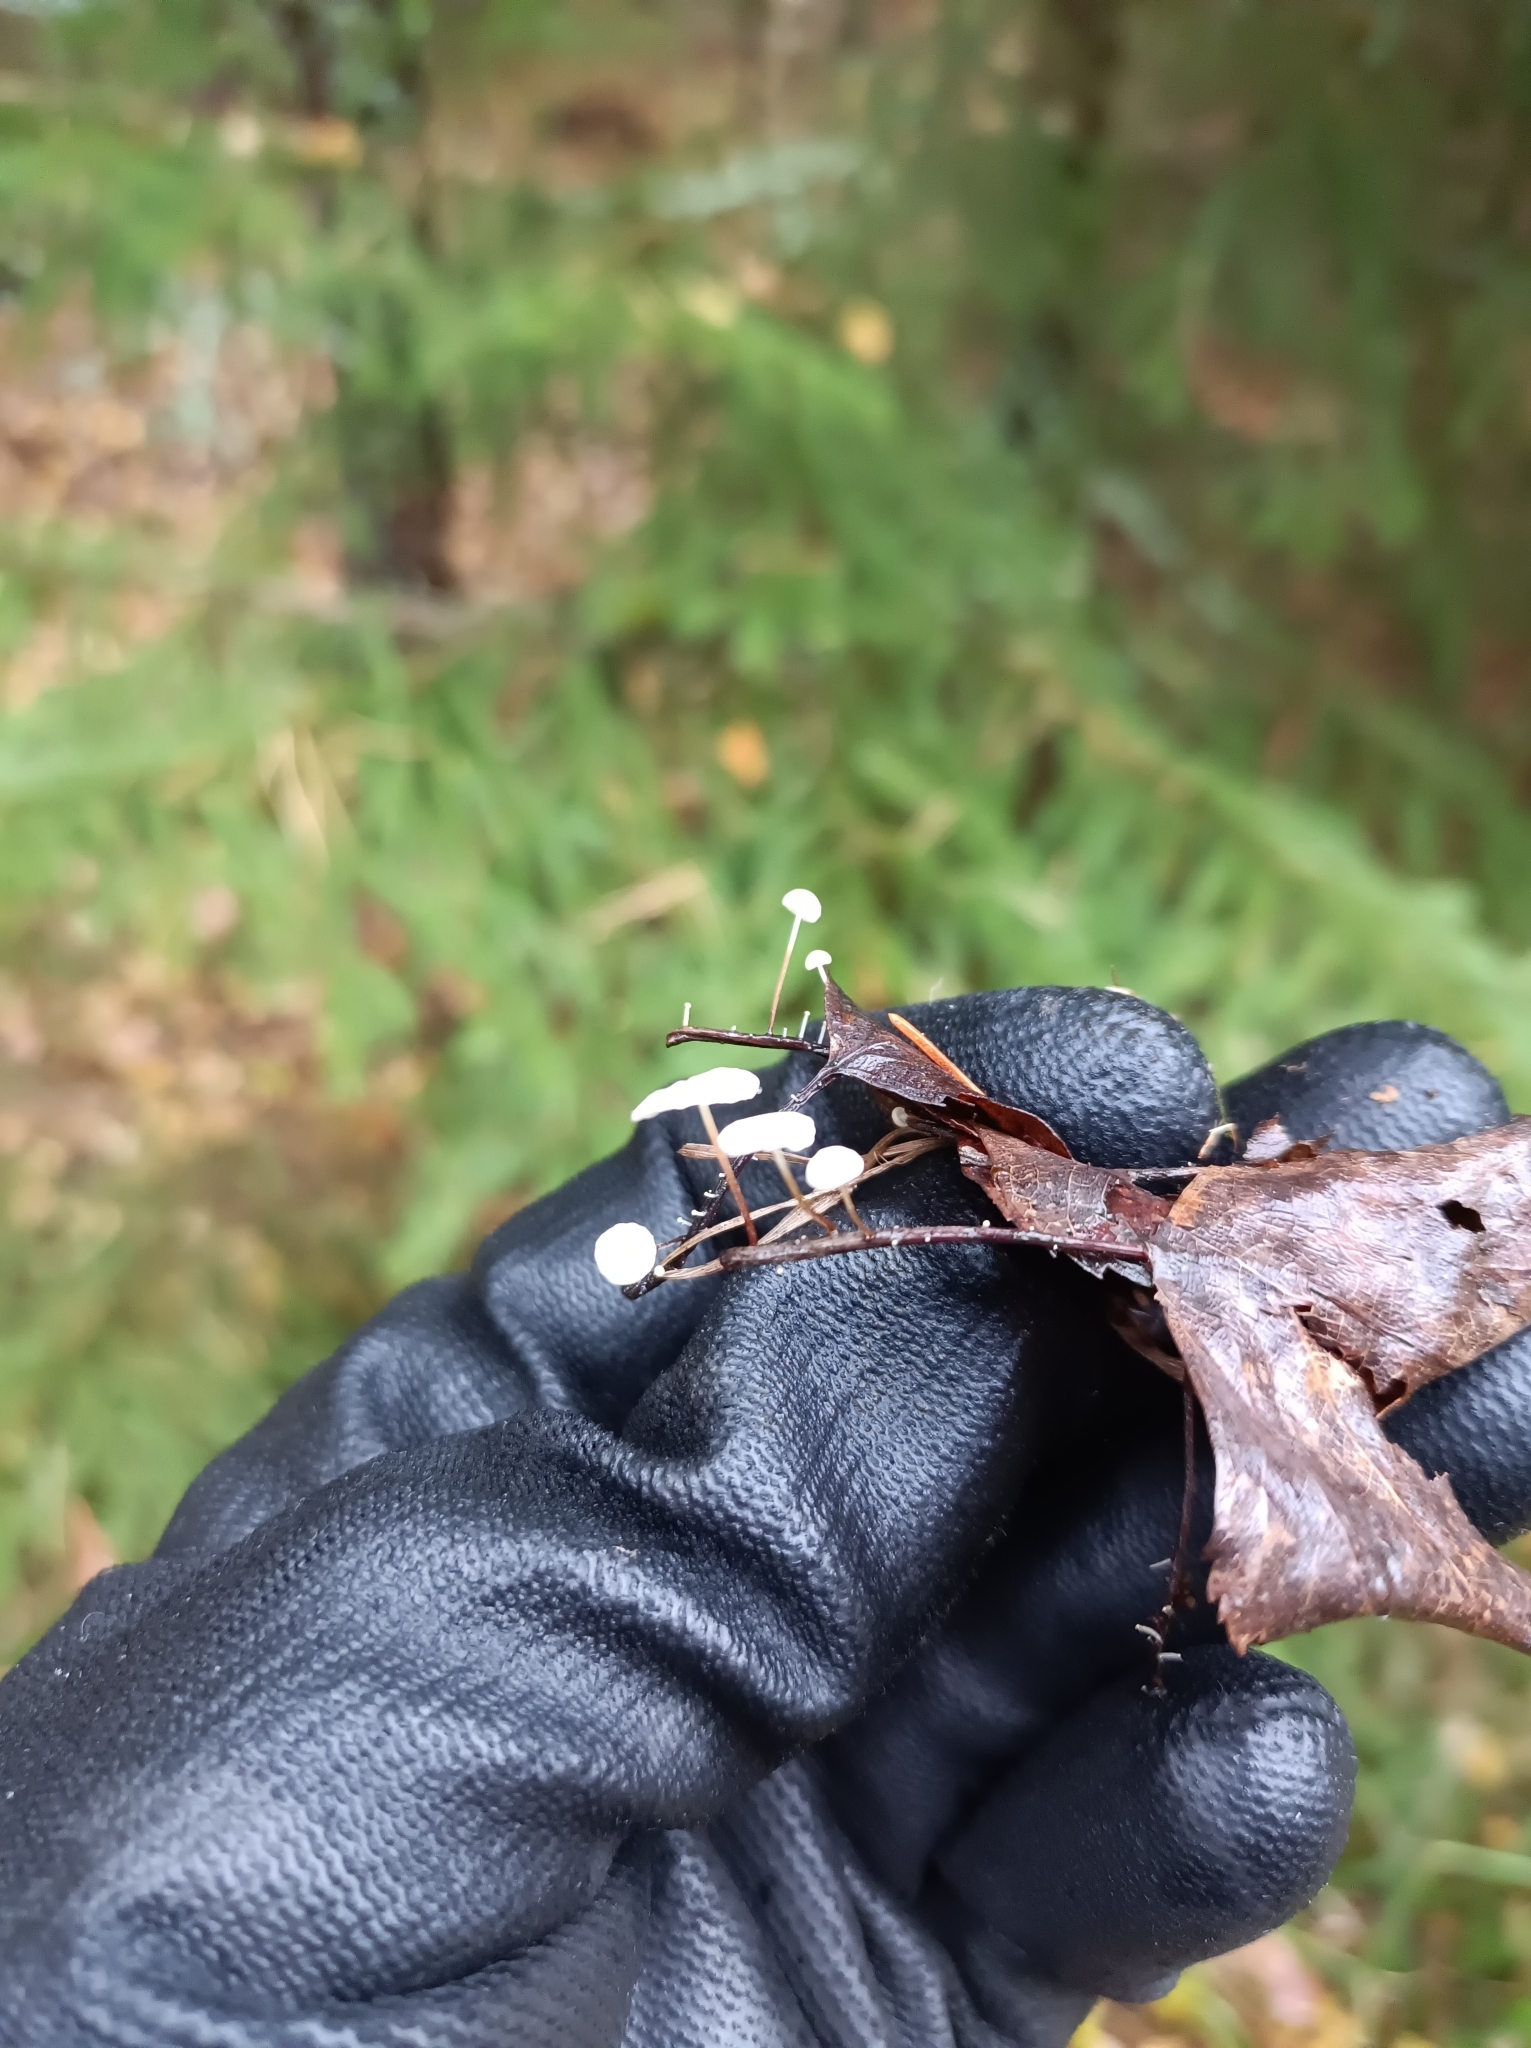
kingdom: Fungi
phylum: Basidiomycota
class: Agaricomycetes
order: Agaricales
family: Physalacriaceae
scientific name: Physalacriaceae
